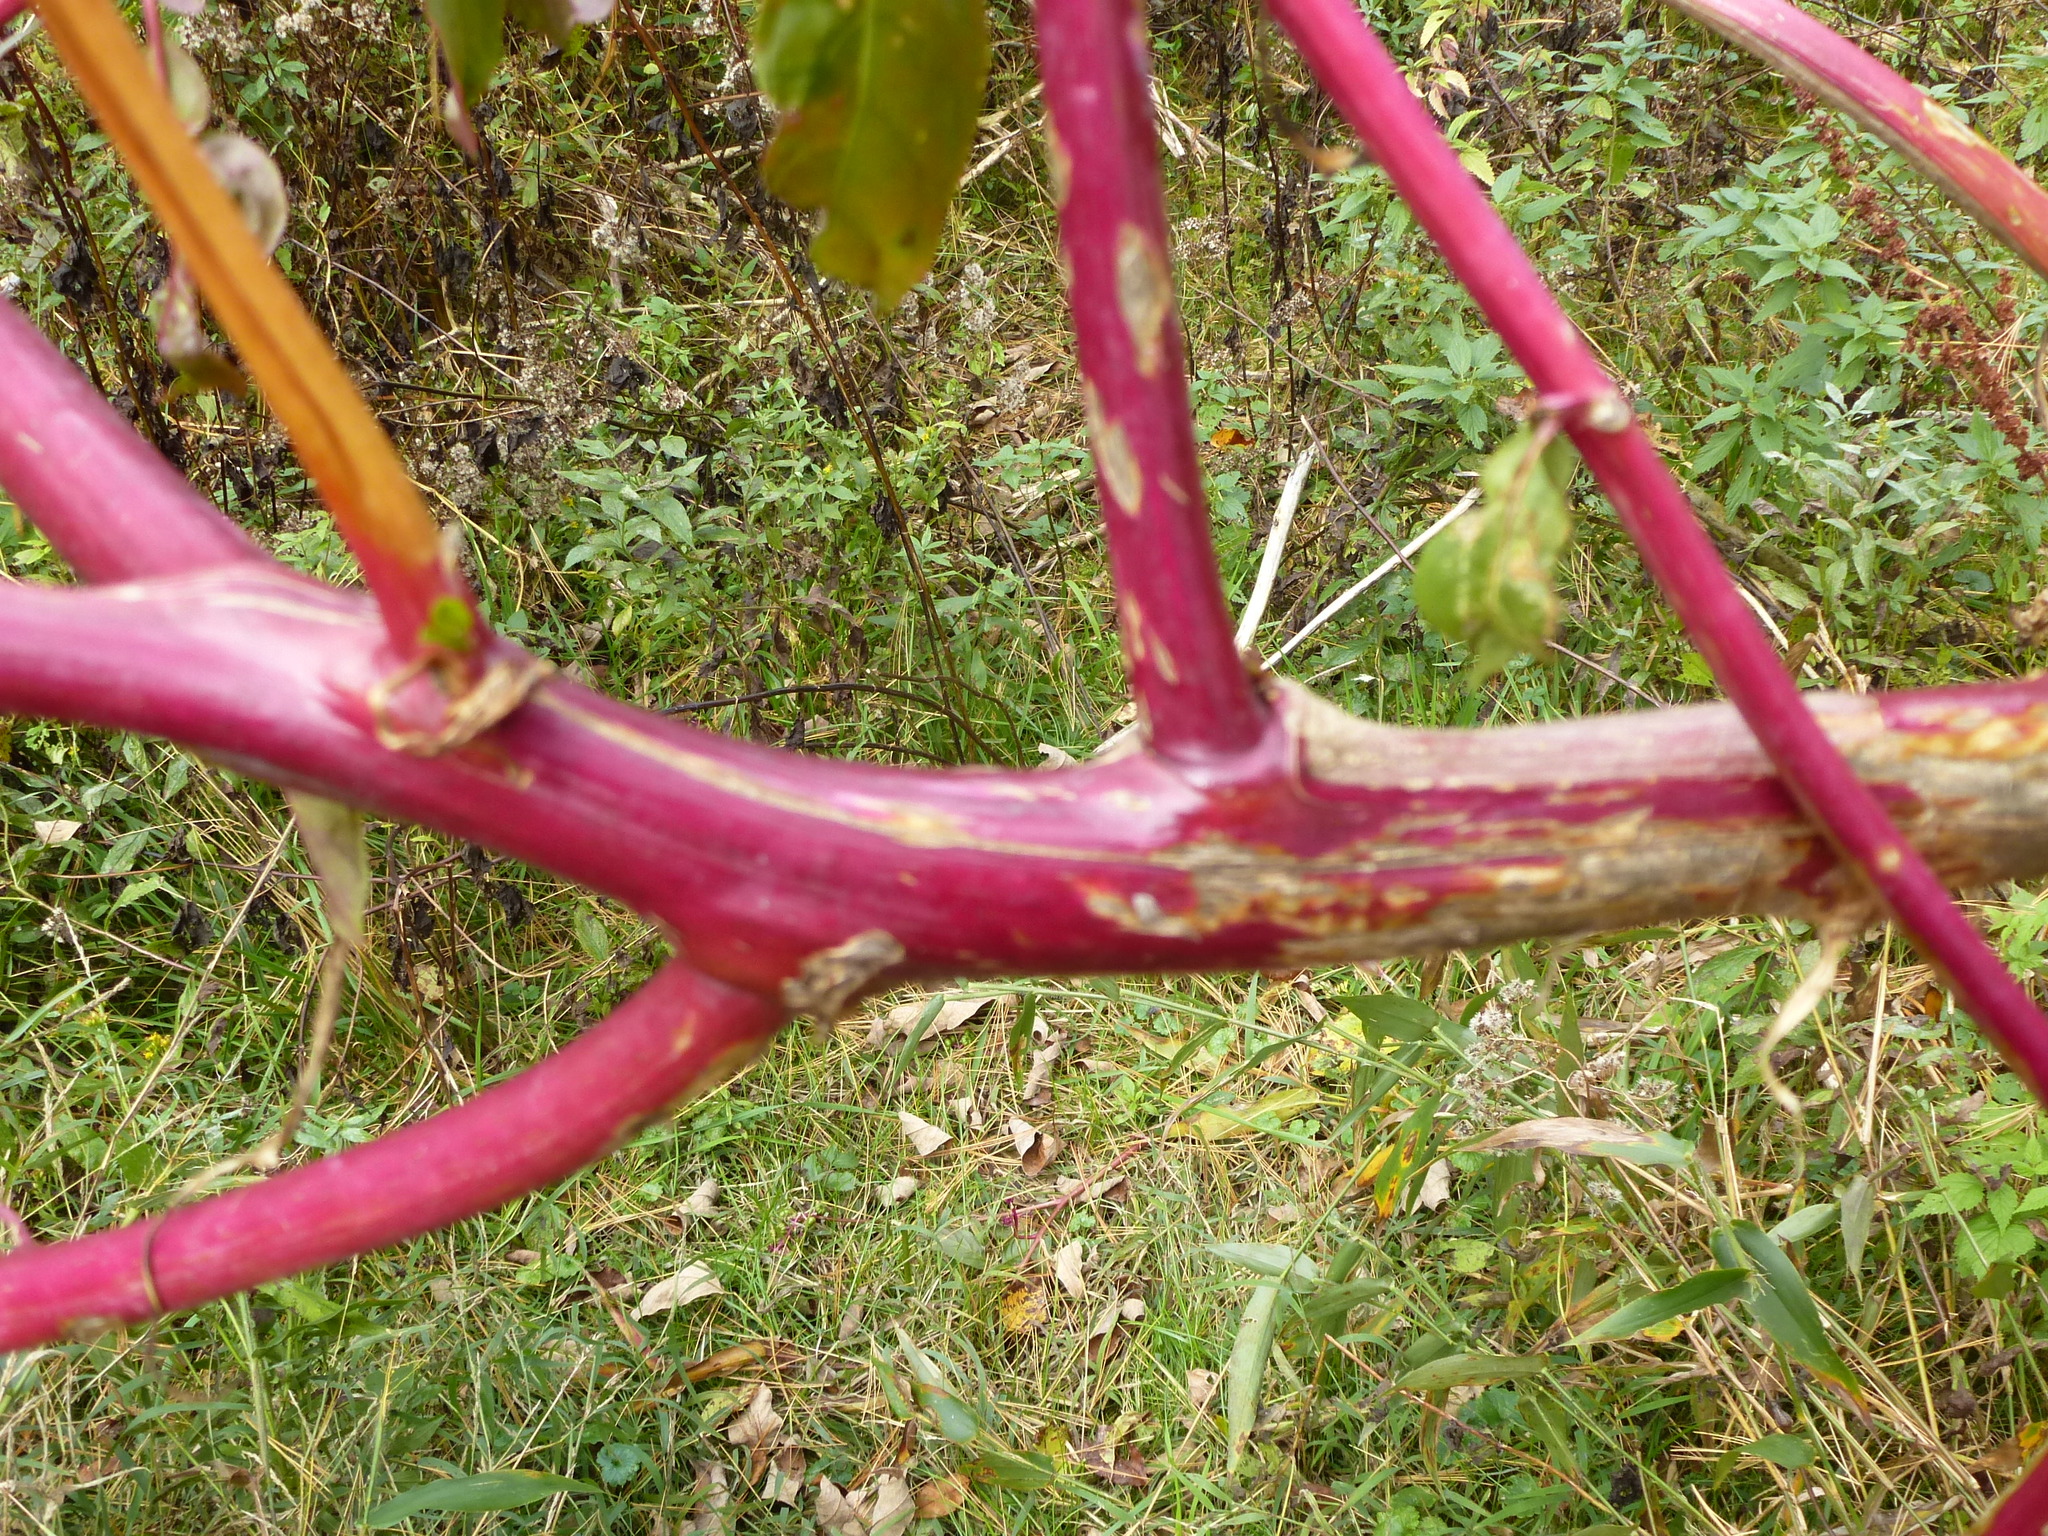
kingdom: Plantae
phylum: Tracheophyta
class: Magnoliopsida
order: Caryophyllales
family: Phytolaccaceae
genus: Phytolacca
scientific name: Phytolacca americana
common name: American pokeweed
